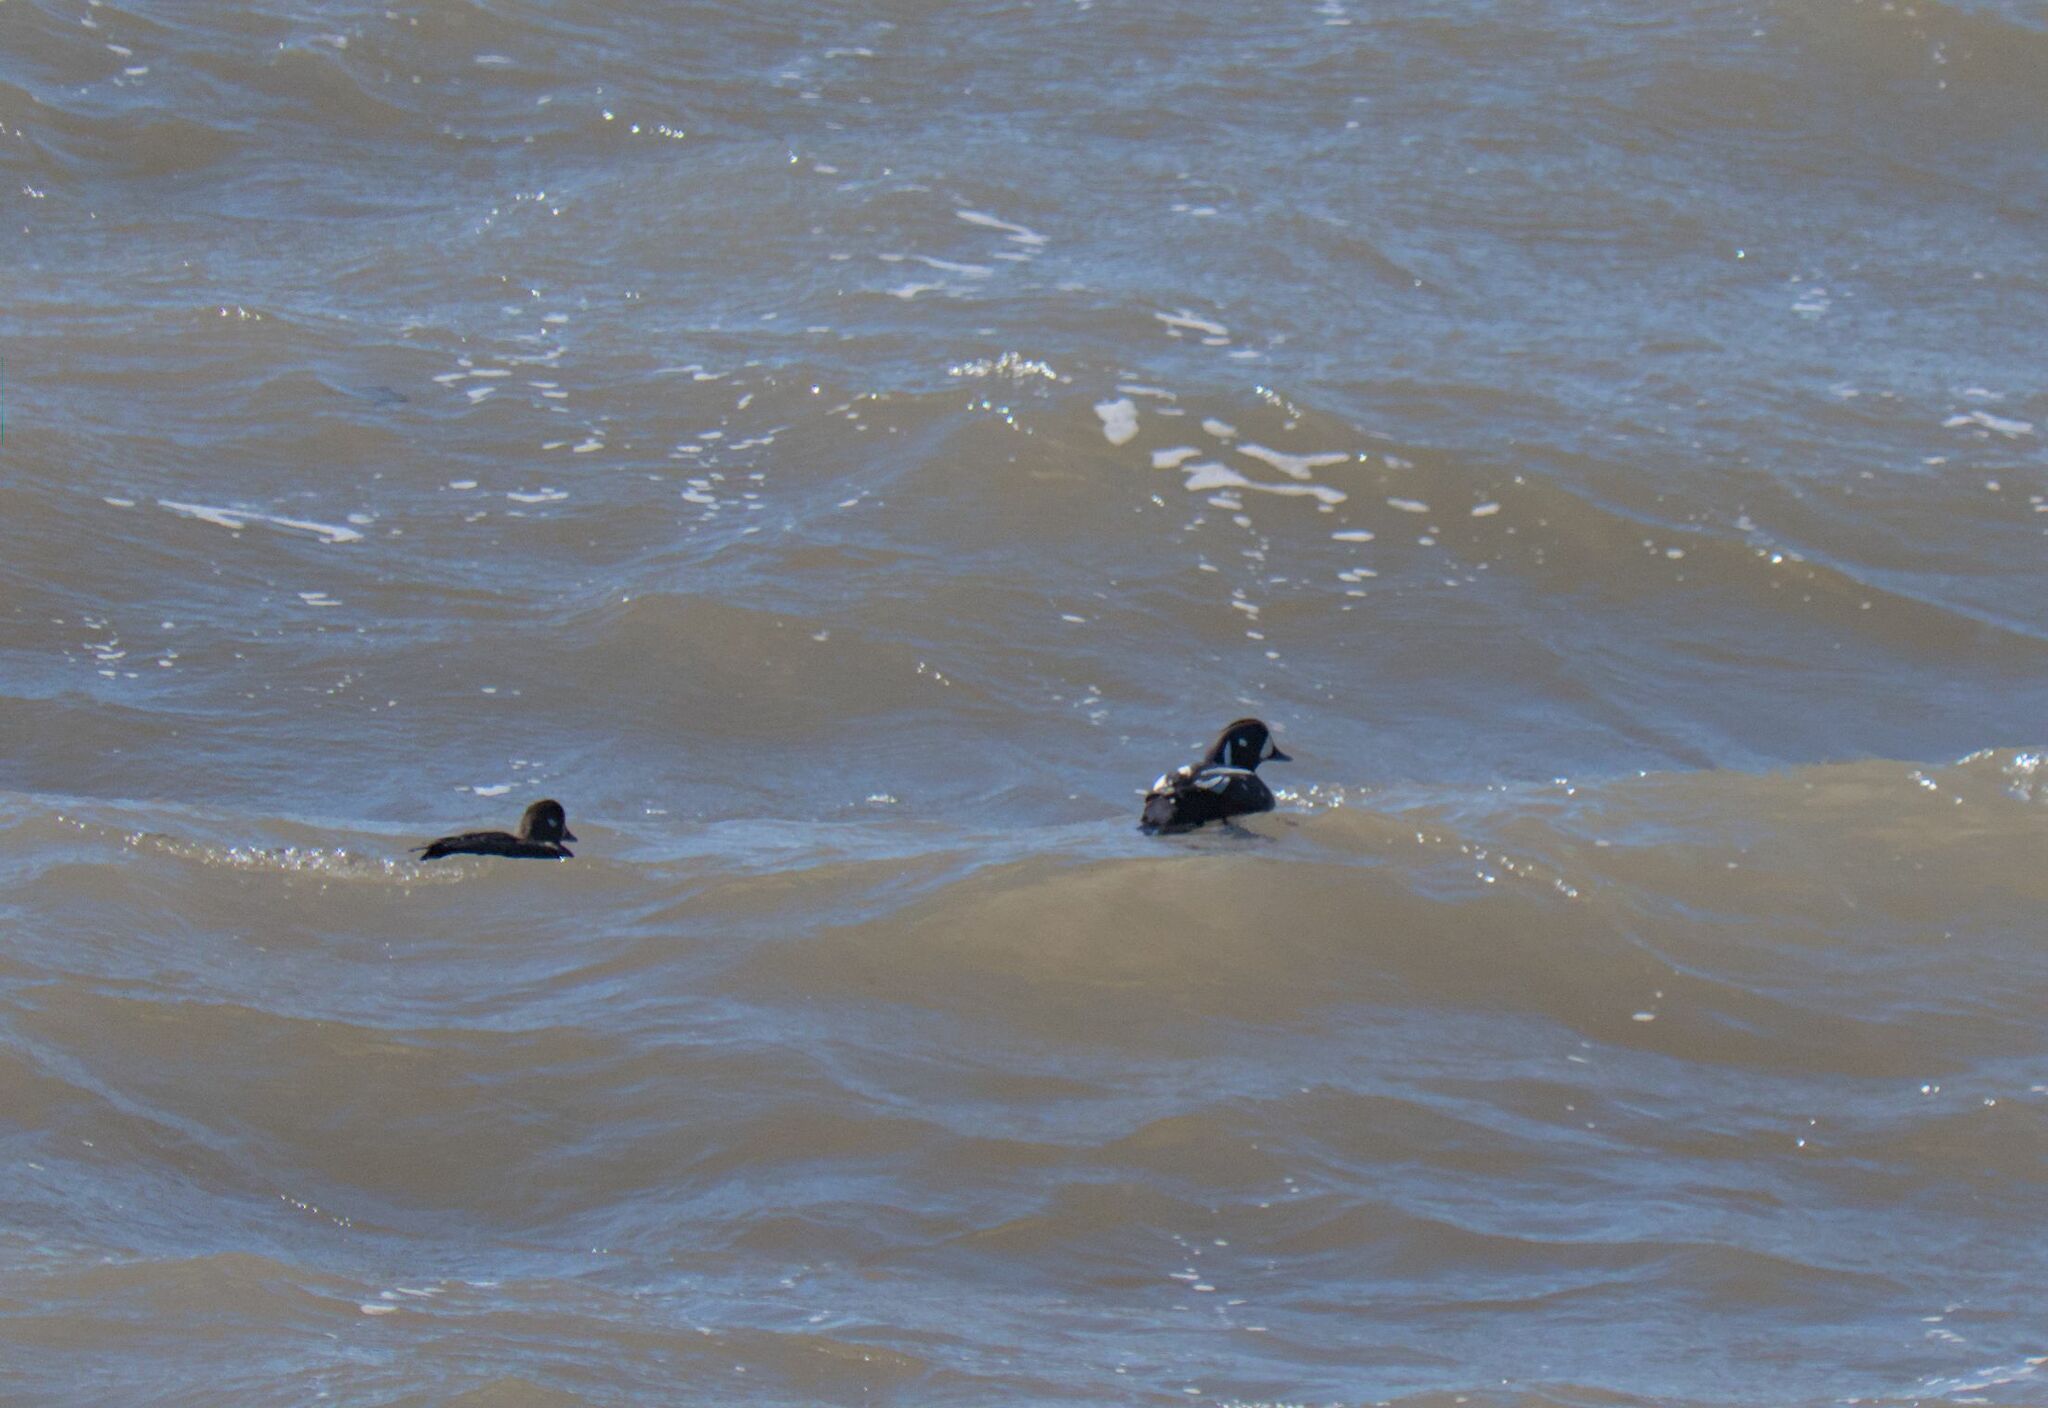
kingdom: Animalia
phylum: Chordata
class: Aves
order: Anseriformes
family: Anatidae
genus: Histrionicus
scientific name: Histrionicus histrionicus
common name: Harlequin duck
